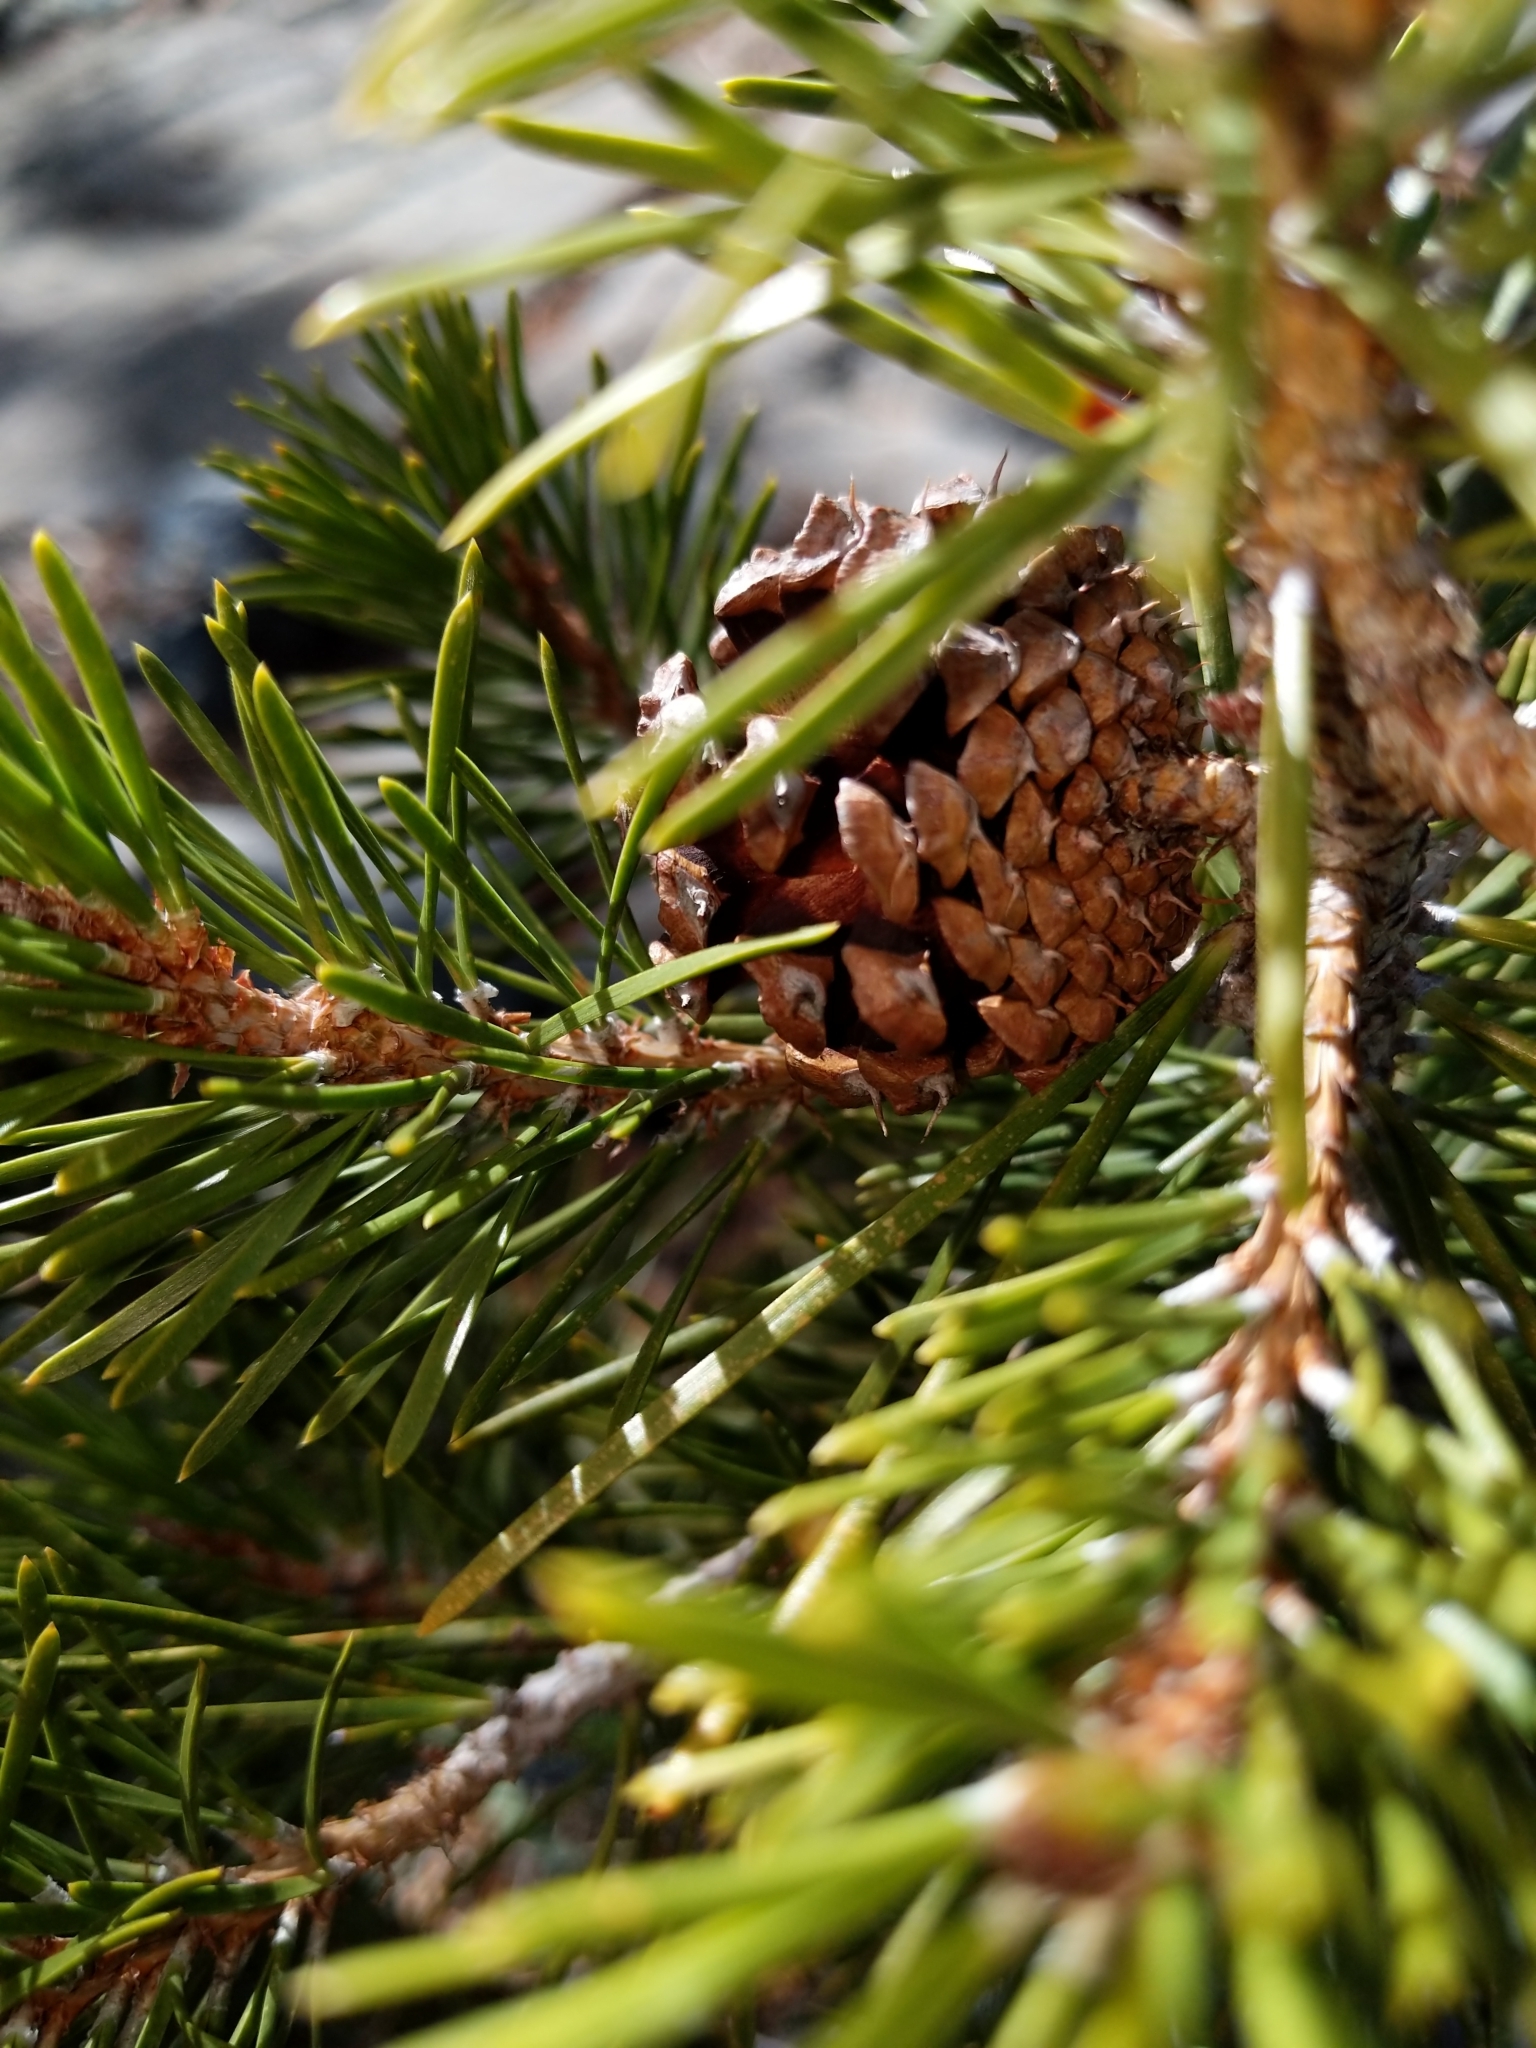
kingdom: Plantae
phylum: Tracheophyta
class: Pinopsida
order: Pinales
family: Pinaceae
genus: Pinus
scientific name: Pinus contorta
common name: Lodgepole pine
